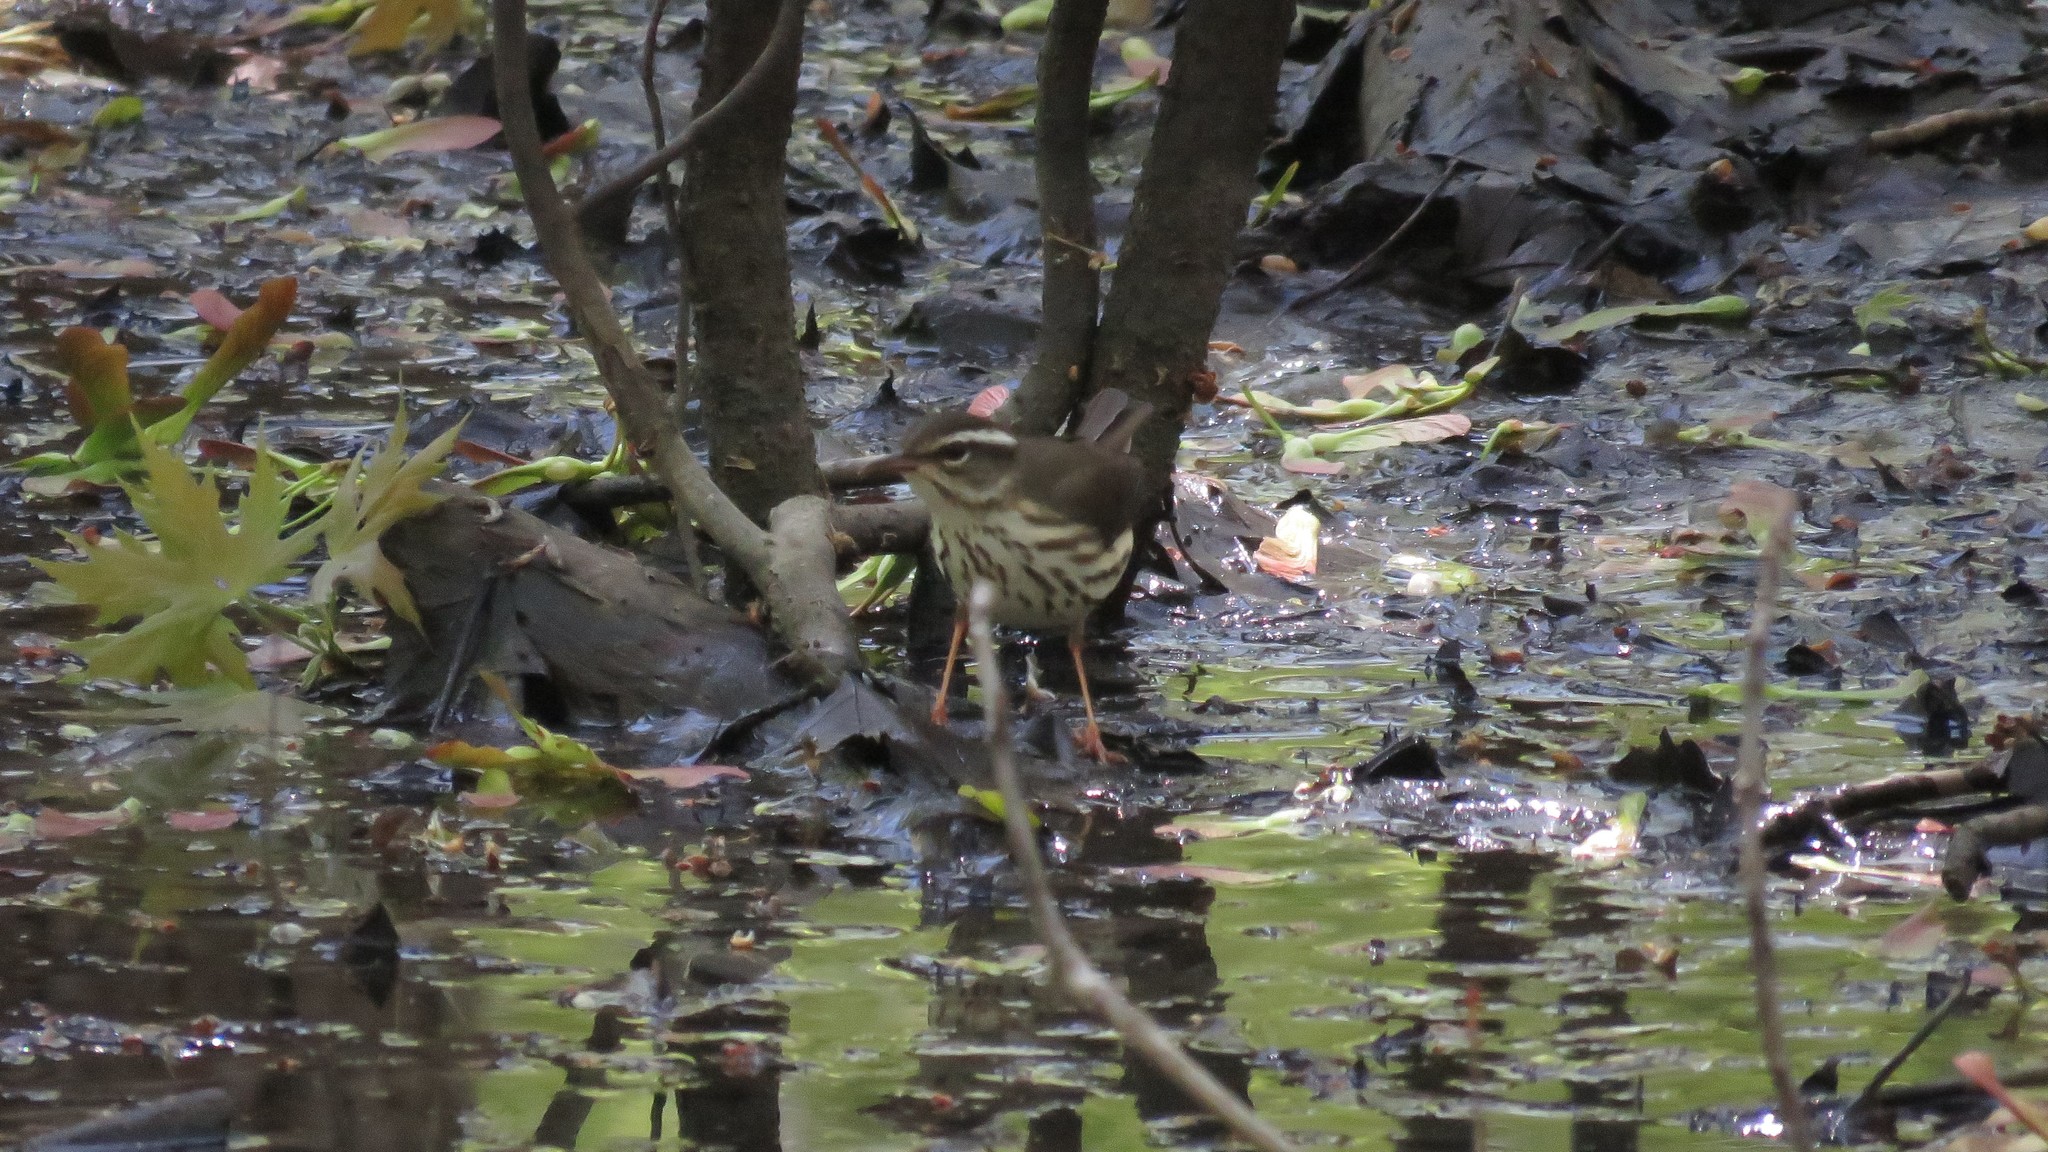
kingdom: Animalia
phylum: Chordata
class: Aves
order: Passeriformes
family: Parulidae
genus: Parkesia
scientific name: Parkesia motacilla
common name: Louisiana waterthrush
